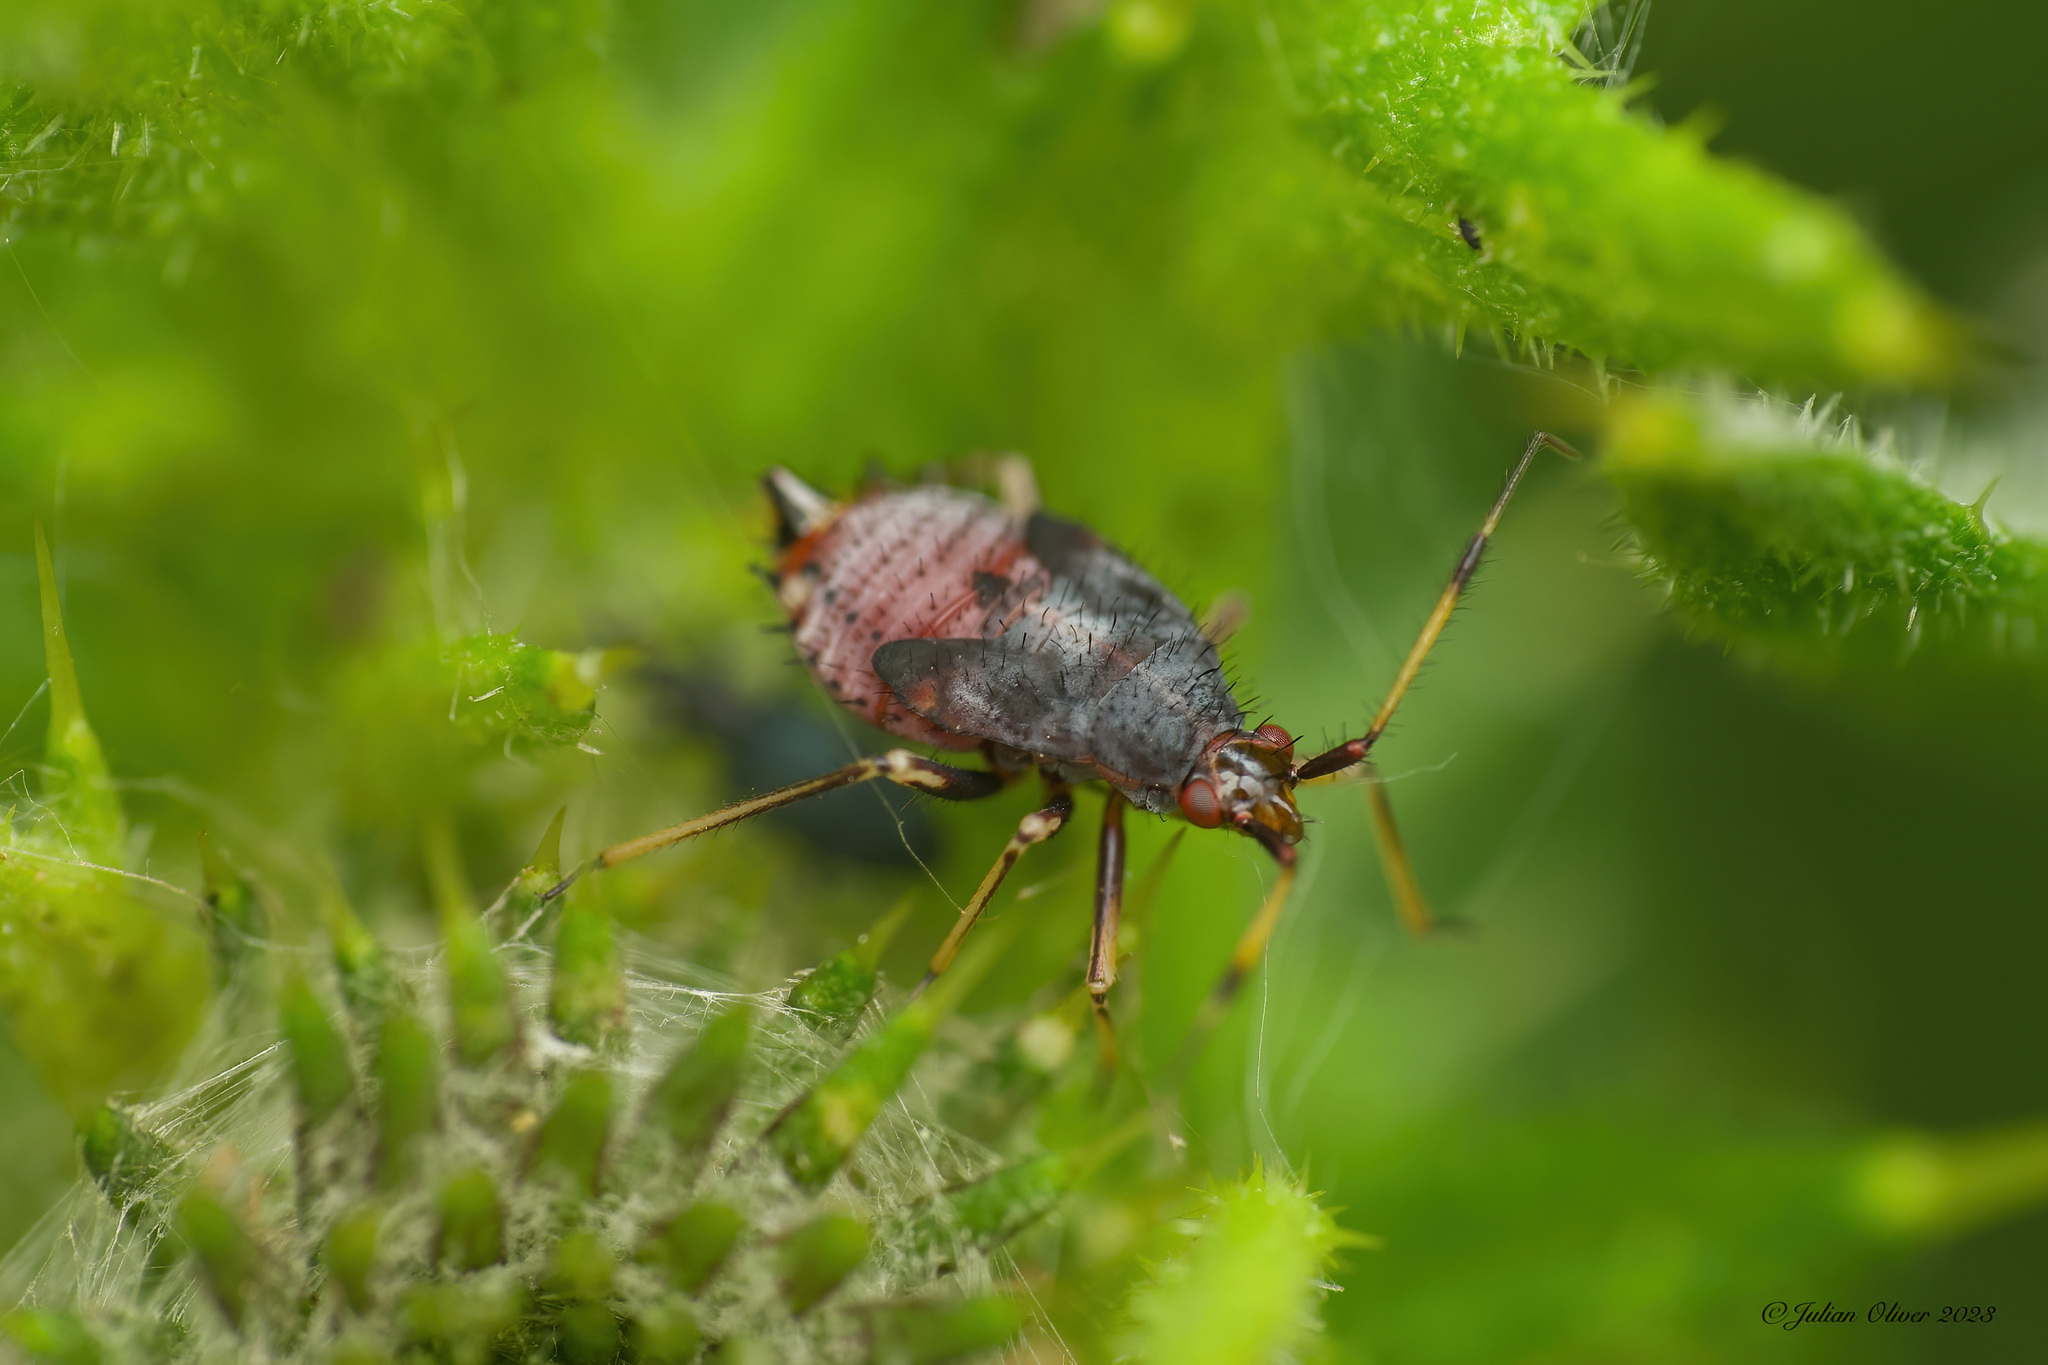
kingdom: Animalia
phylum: Arthropoda
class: Insecta
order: Hemiptera
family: Miridae
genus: Deraeocoris
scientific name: Deraeocoris ruber
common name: Plant bug
